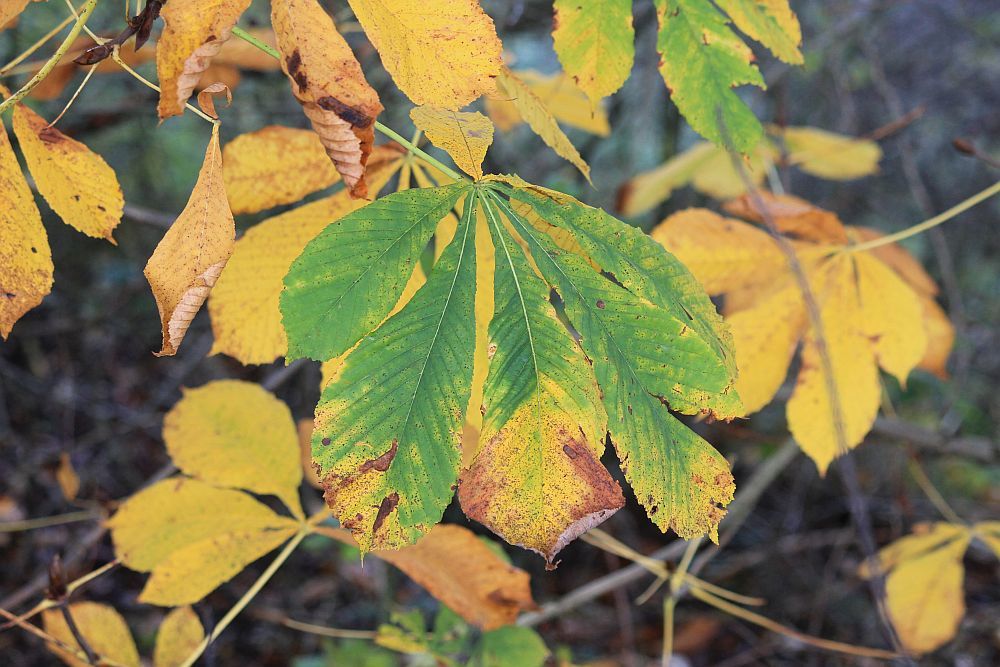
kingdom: Plantae
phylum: Tracheophyta
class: Magnoliopsida
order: Sapindales
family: Sapindaceae
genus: Aesculus
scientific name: Aesculus hippocastanum
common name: Horse-chestnut
